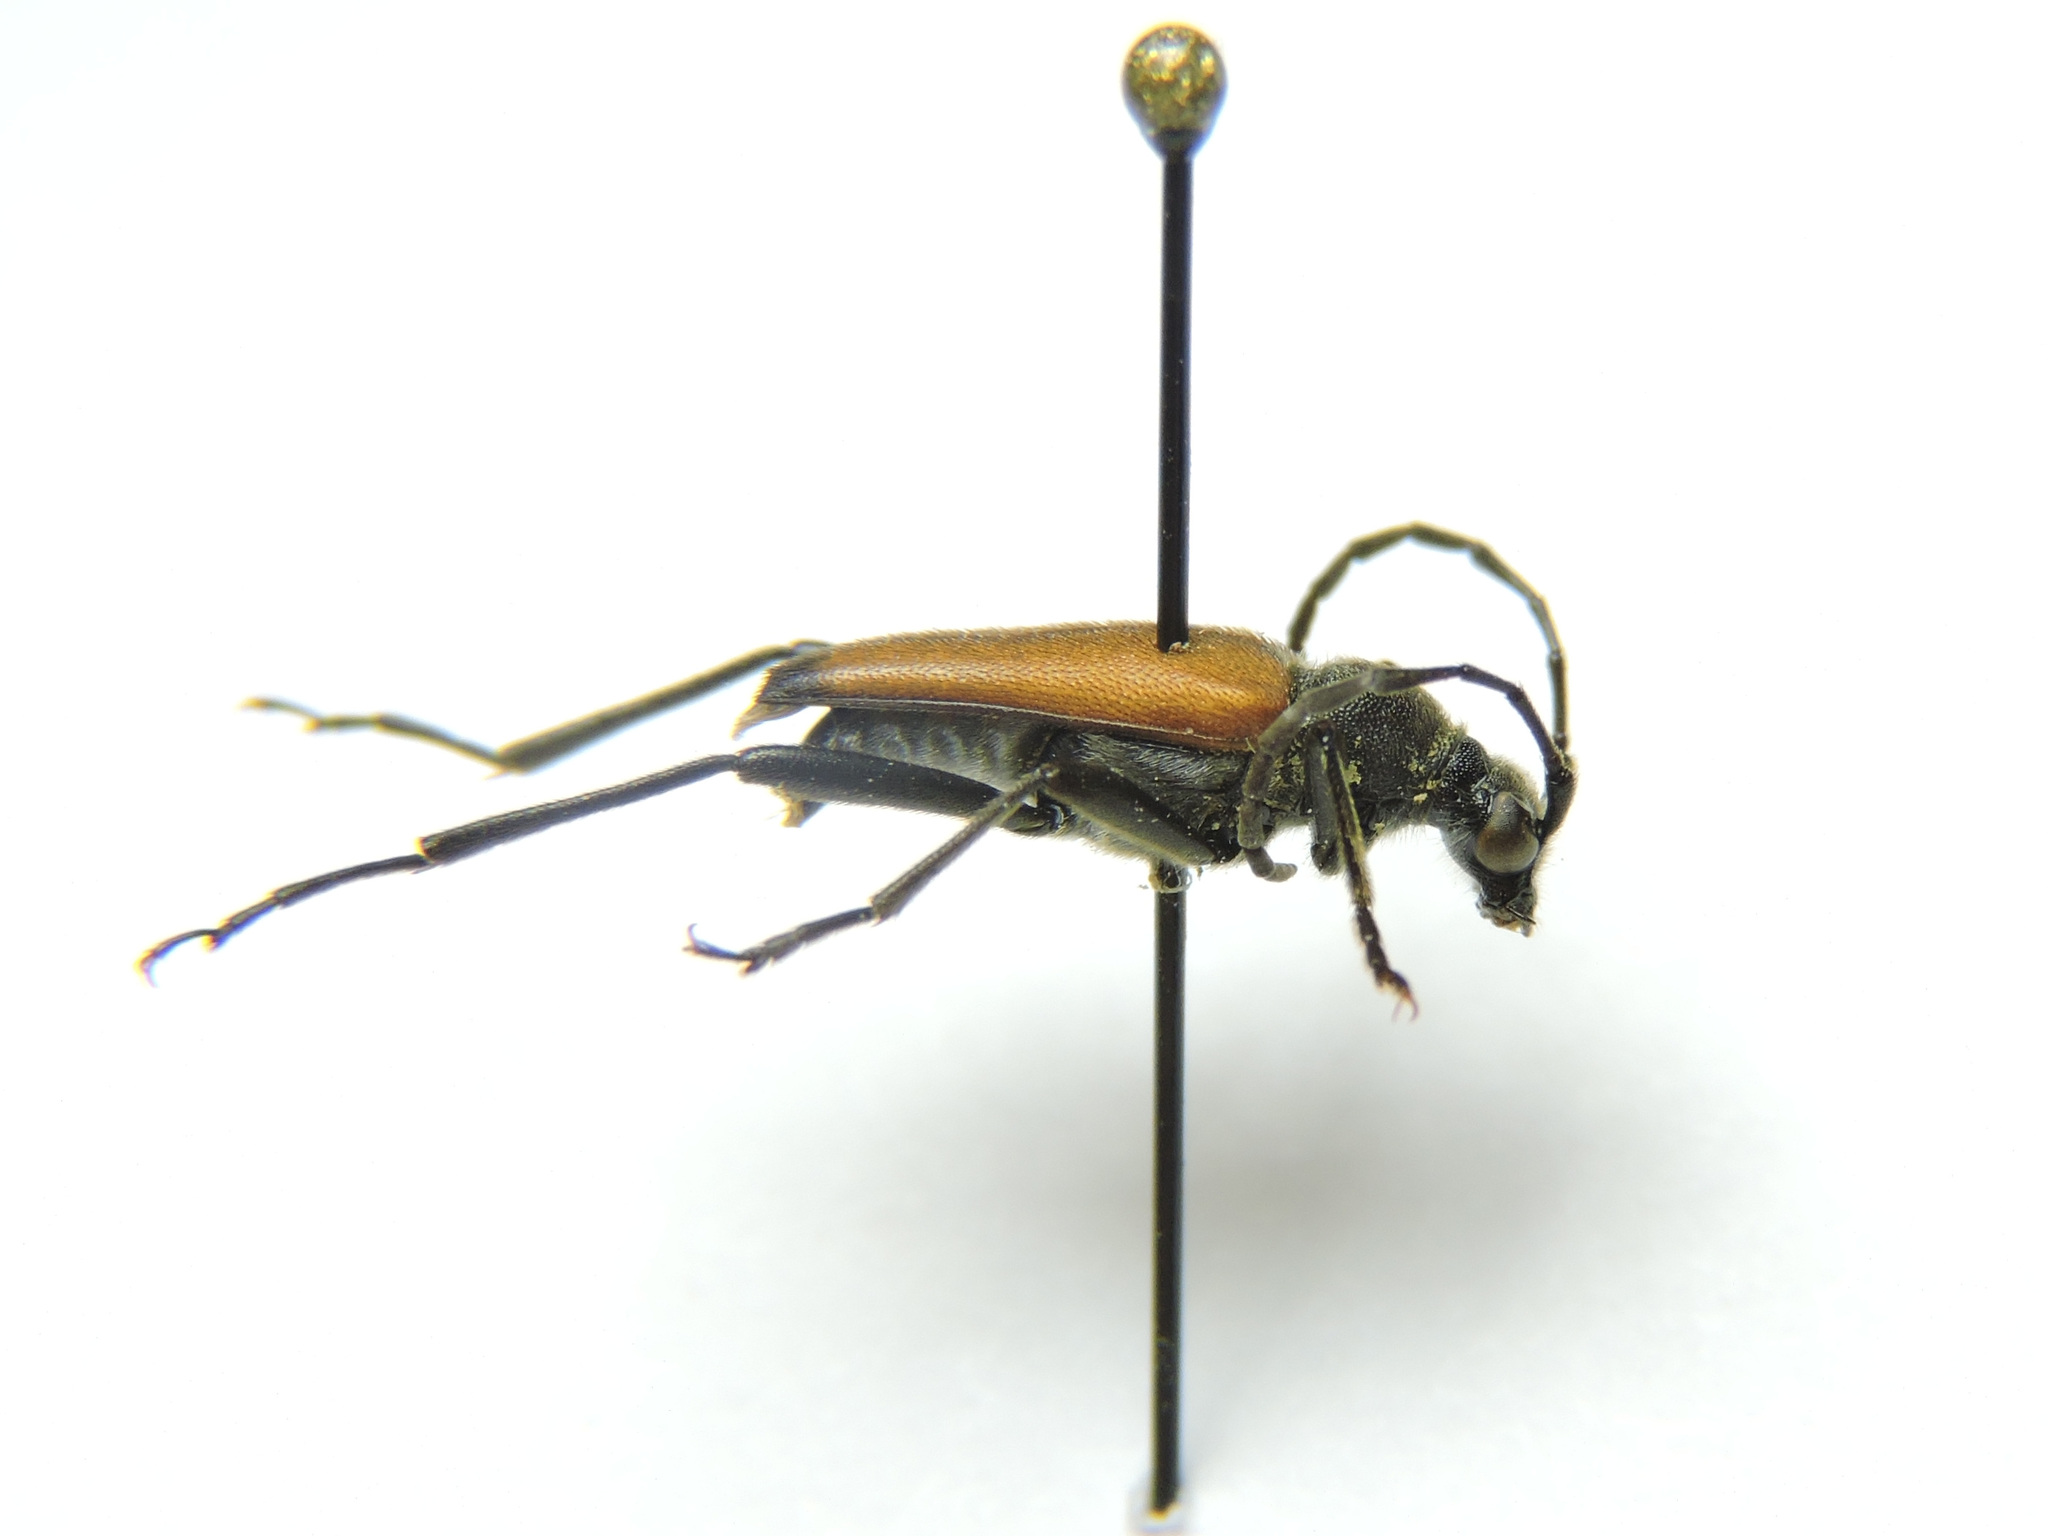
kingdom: Animalia
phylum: Arthropoda
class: Insecta
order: Coleoptera
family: Cerambycidae
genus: Anastrangalia
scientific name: Anastrangalia sanguinolenta
